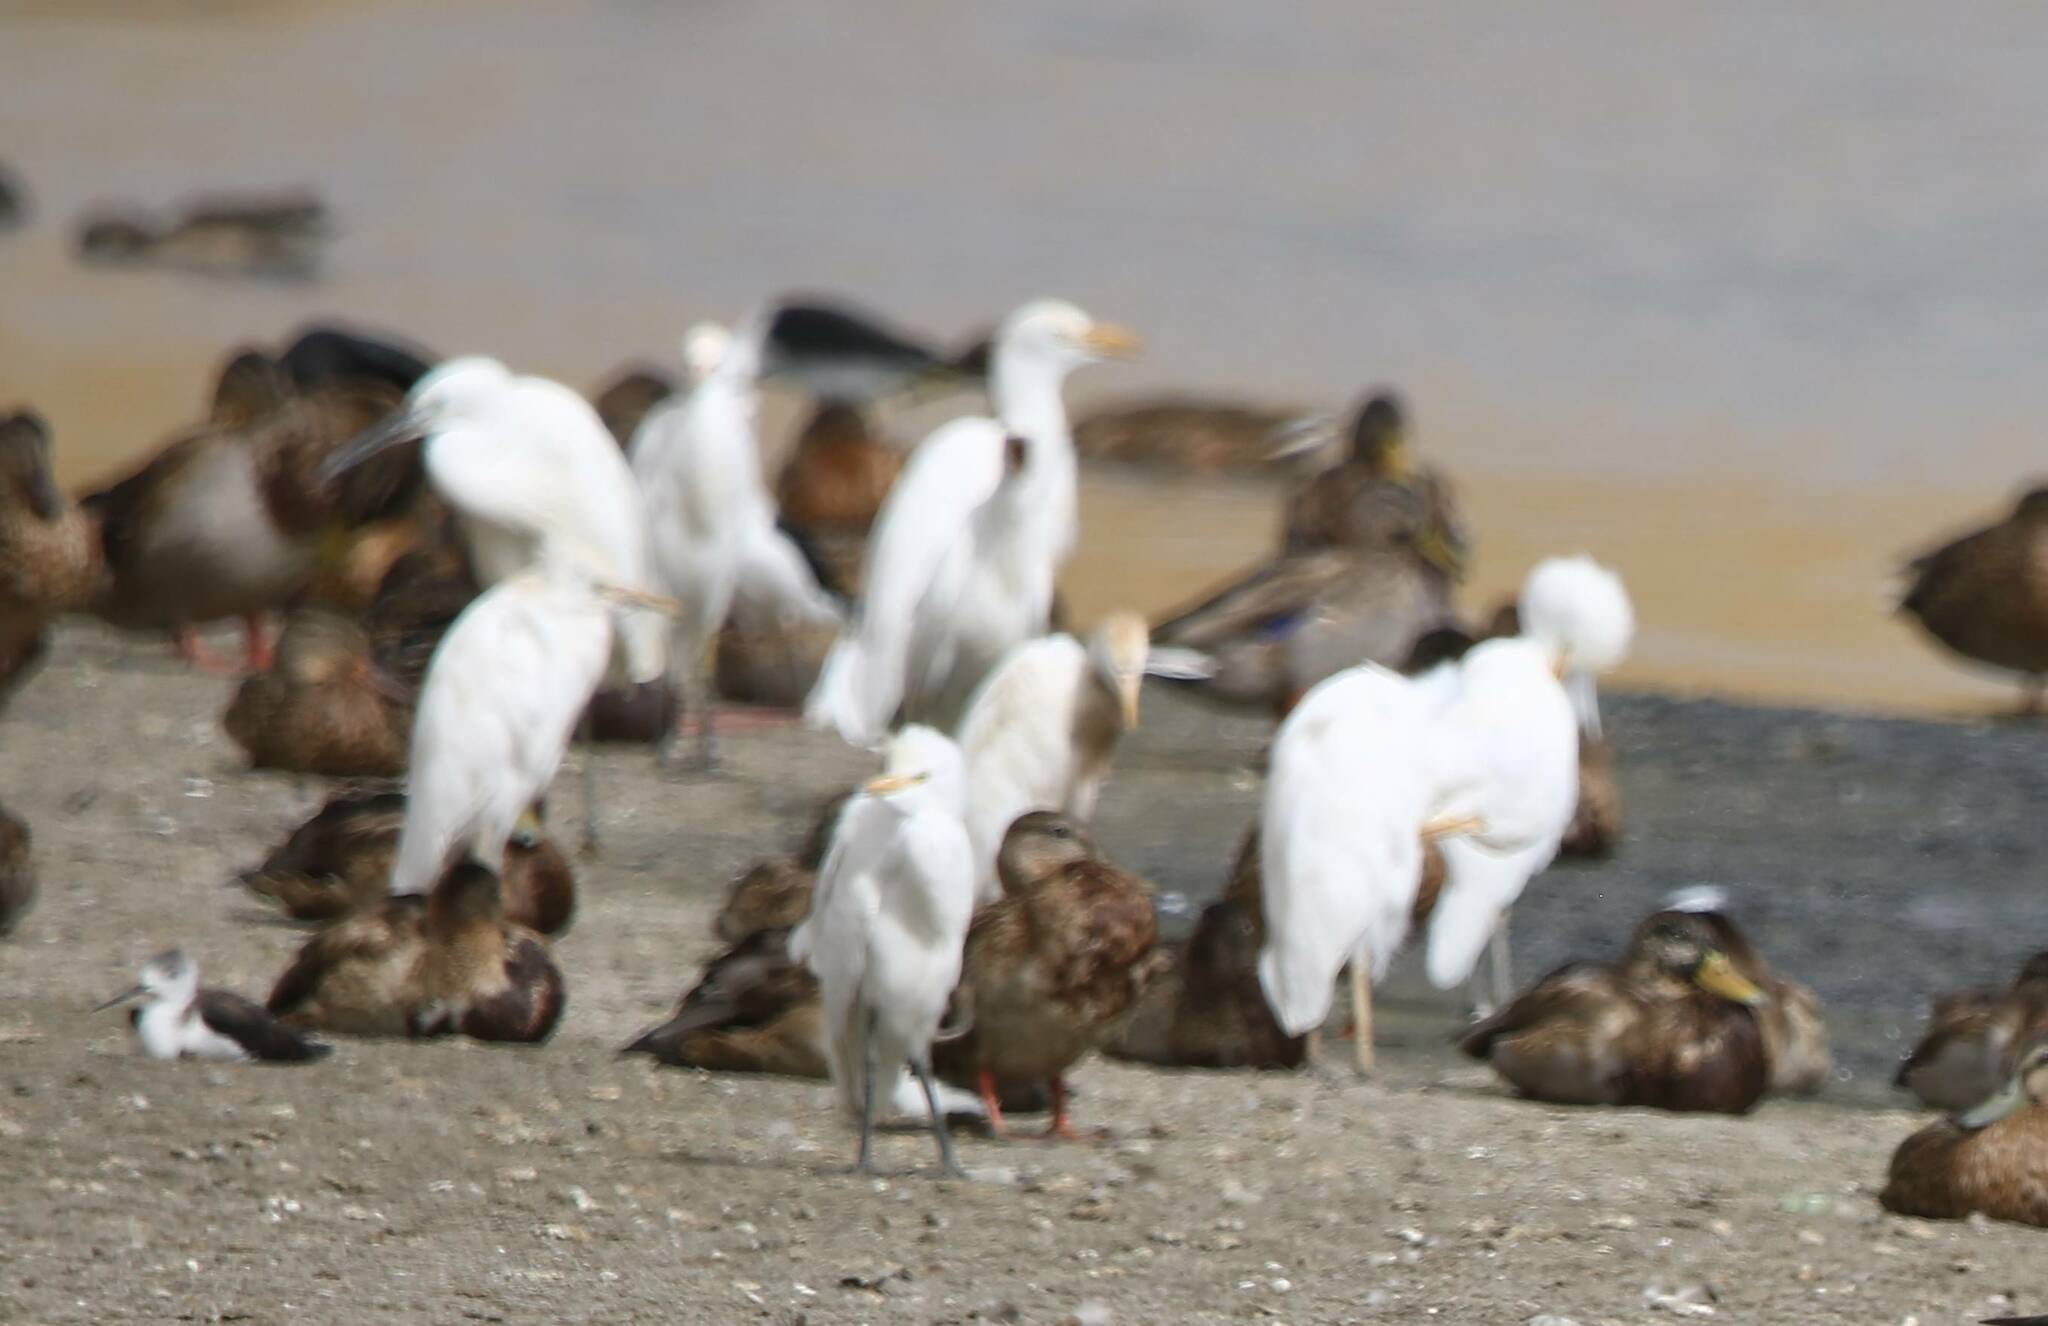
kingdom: Animalia
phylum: Chordata
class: Aves
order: Pelecaniformes
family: Ardeidae
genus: Bubulcus
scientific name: Bubulcus ibis
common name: Cattle egret
